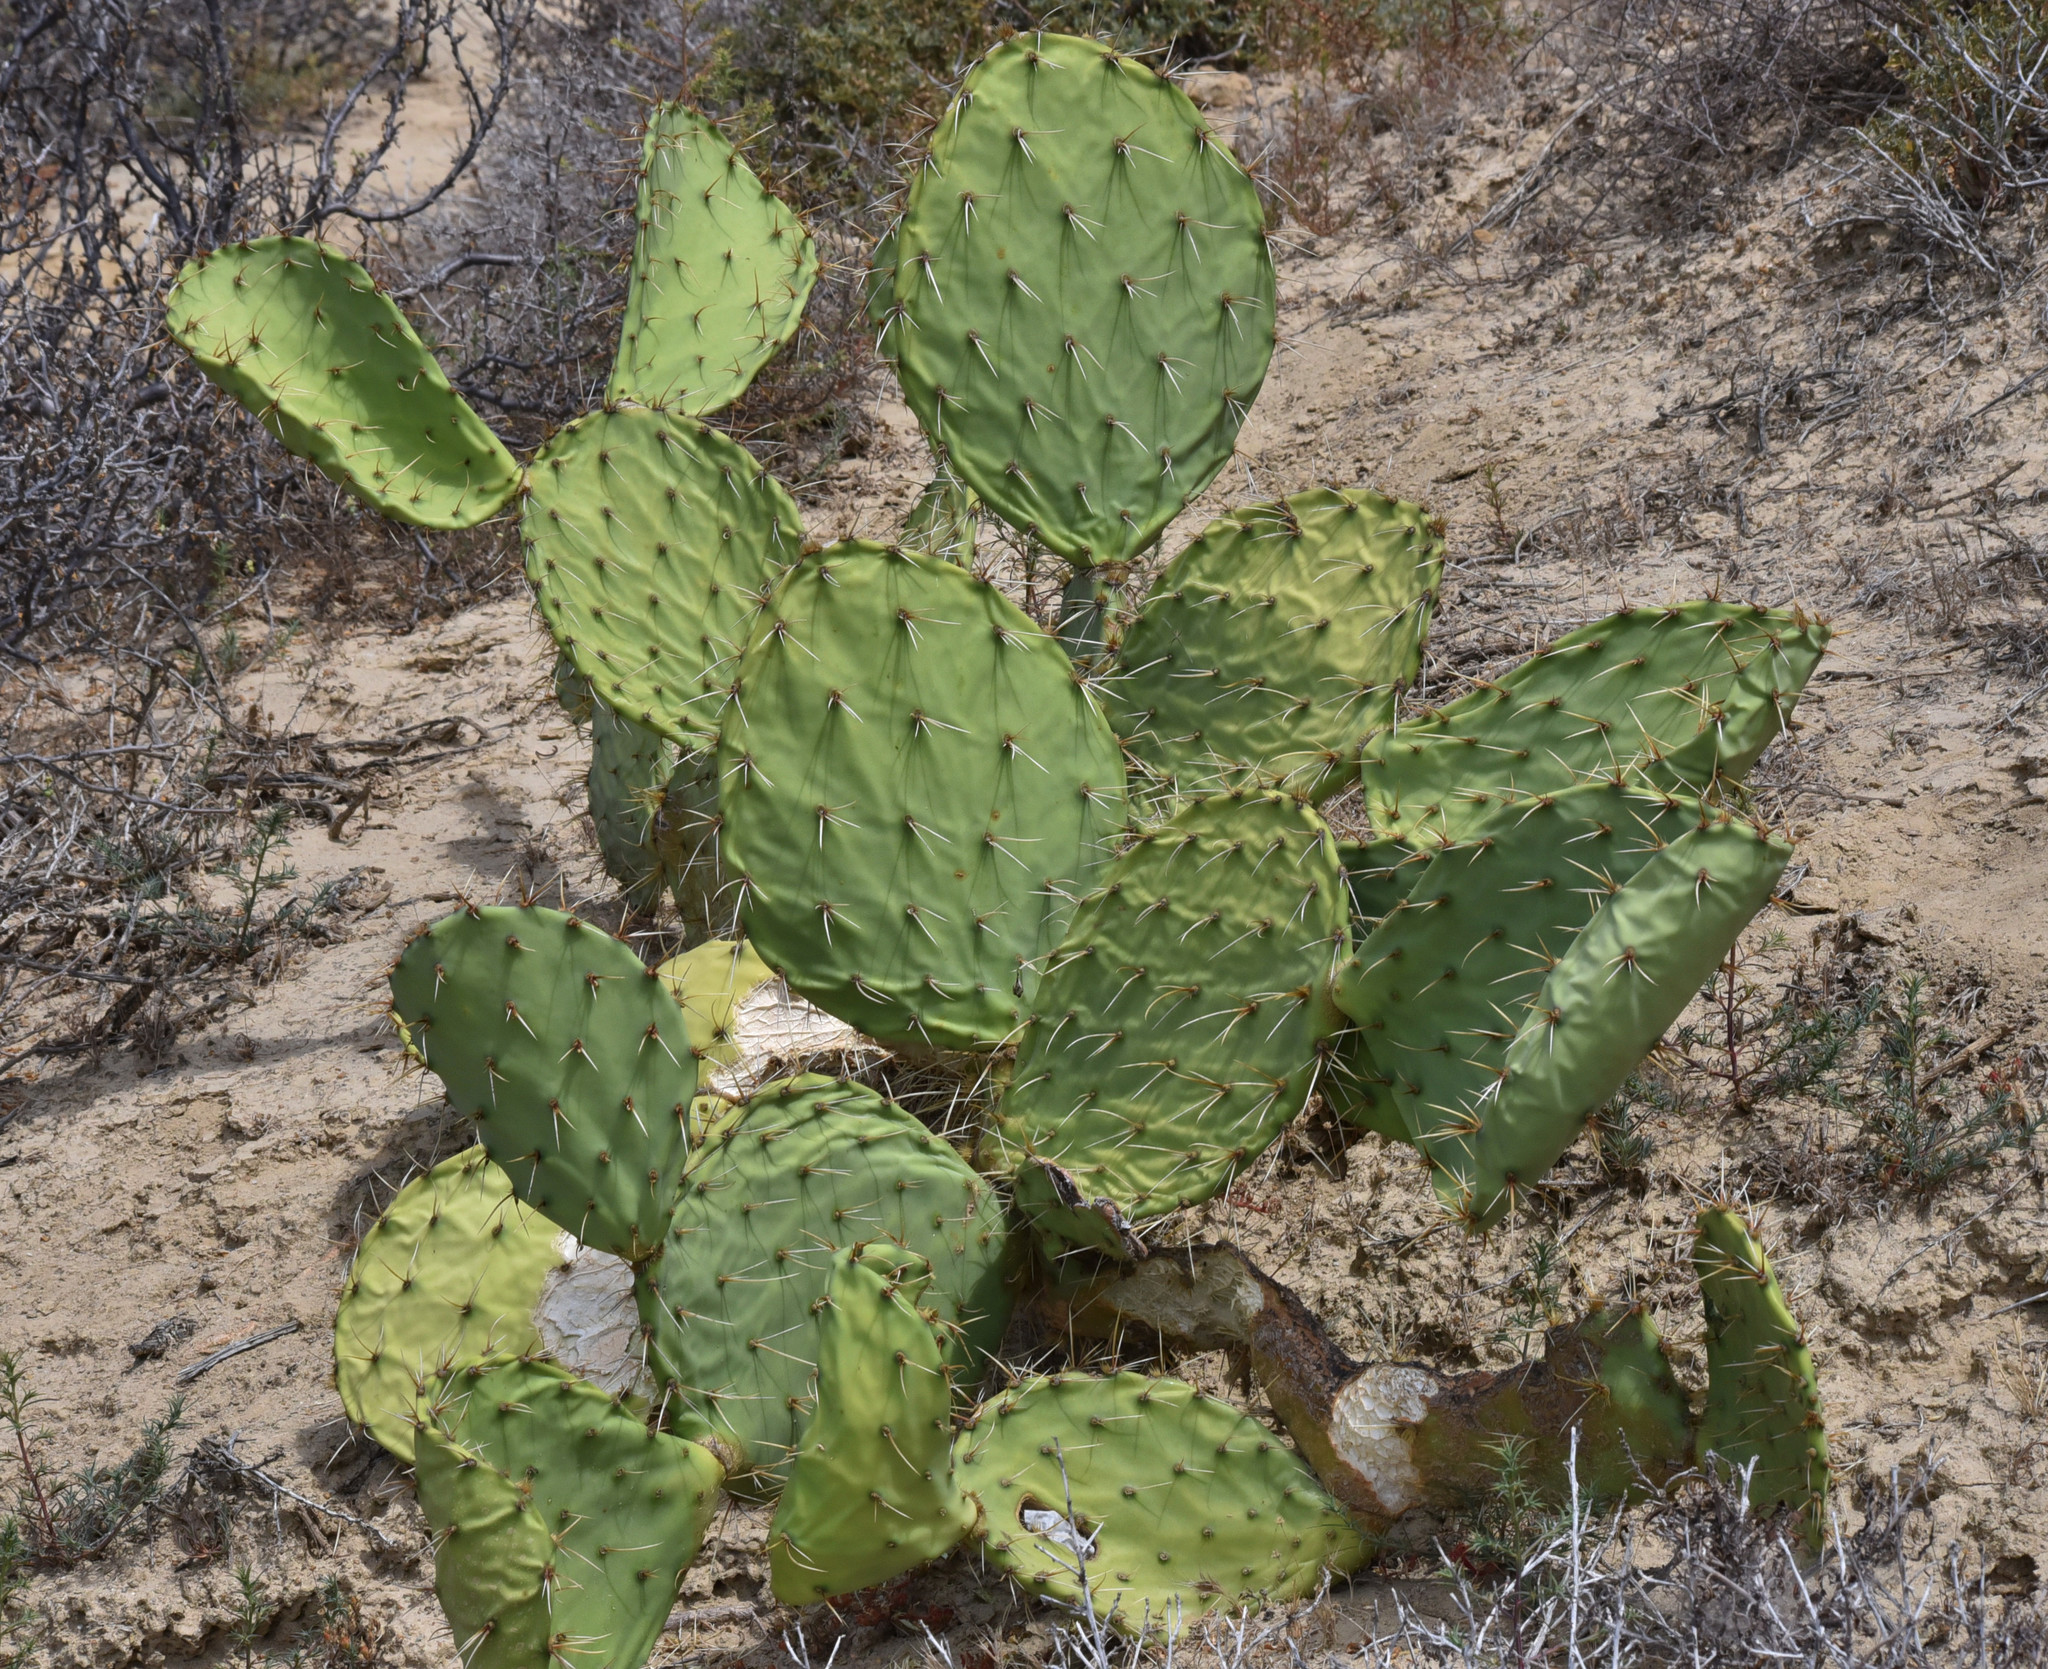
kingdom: Plantae
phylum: Tracheophyta
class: Magnoliopsida
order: Caryophyllales
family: Cactaceae
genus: Opuntia
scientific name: Opuntia littoralis
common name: Coastal prickly-pear
